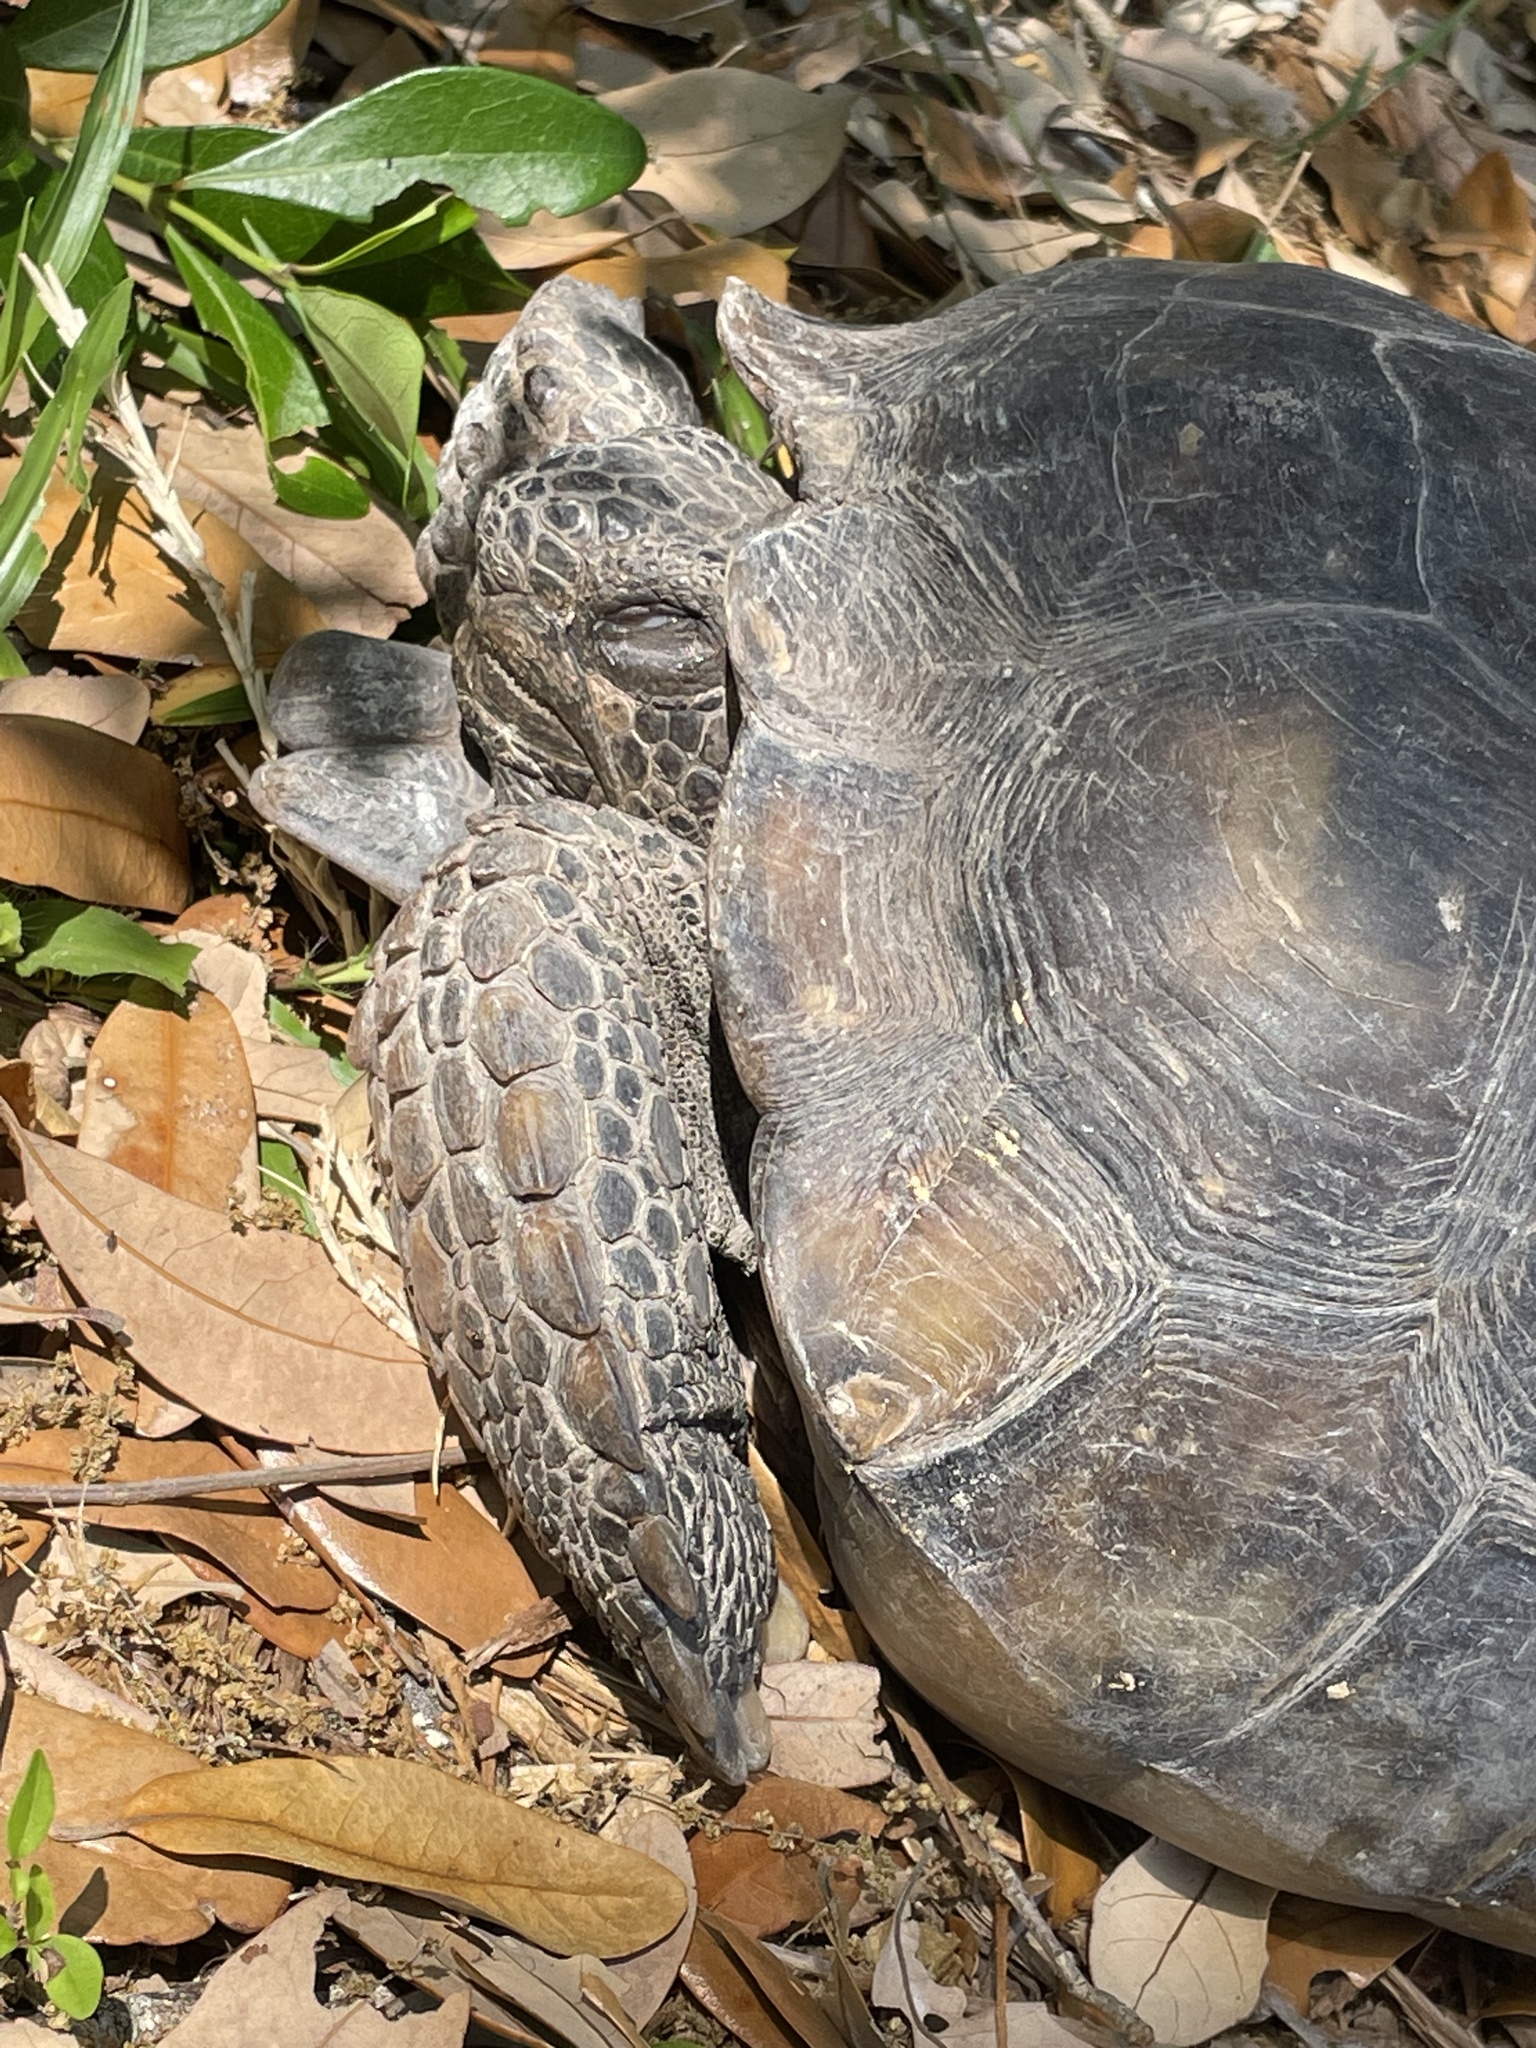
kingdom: Animalia
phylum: Chordata
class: Testudines
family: Testudinidae
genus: Gopherus
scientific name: Gopherus polyphemus
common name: Florida gopher tortoise
